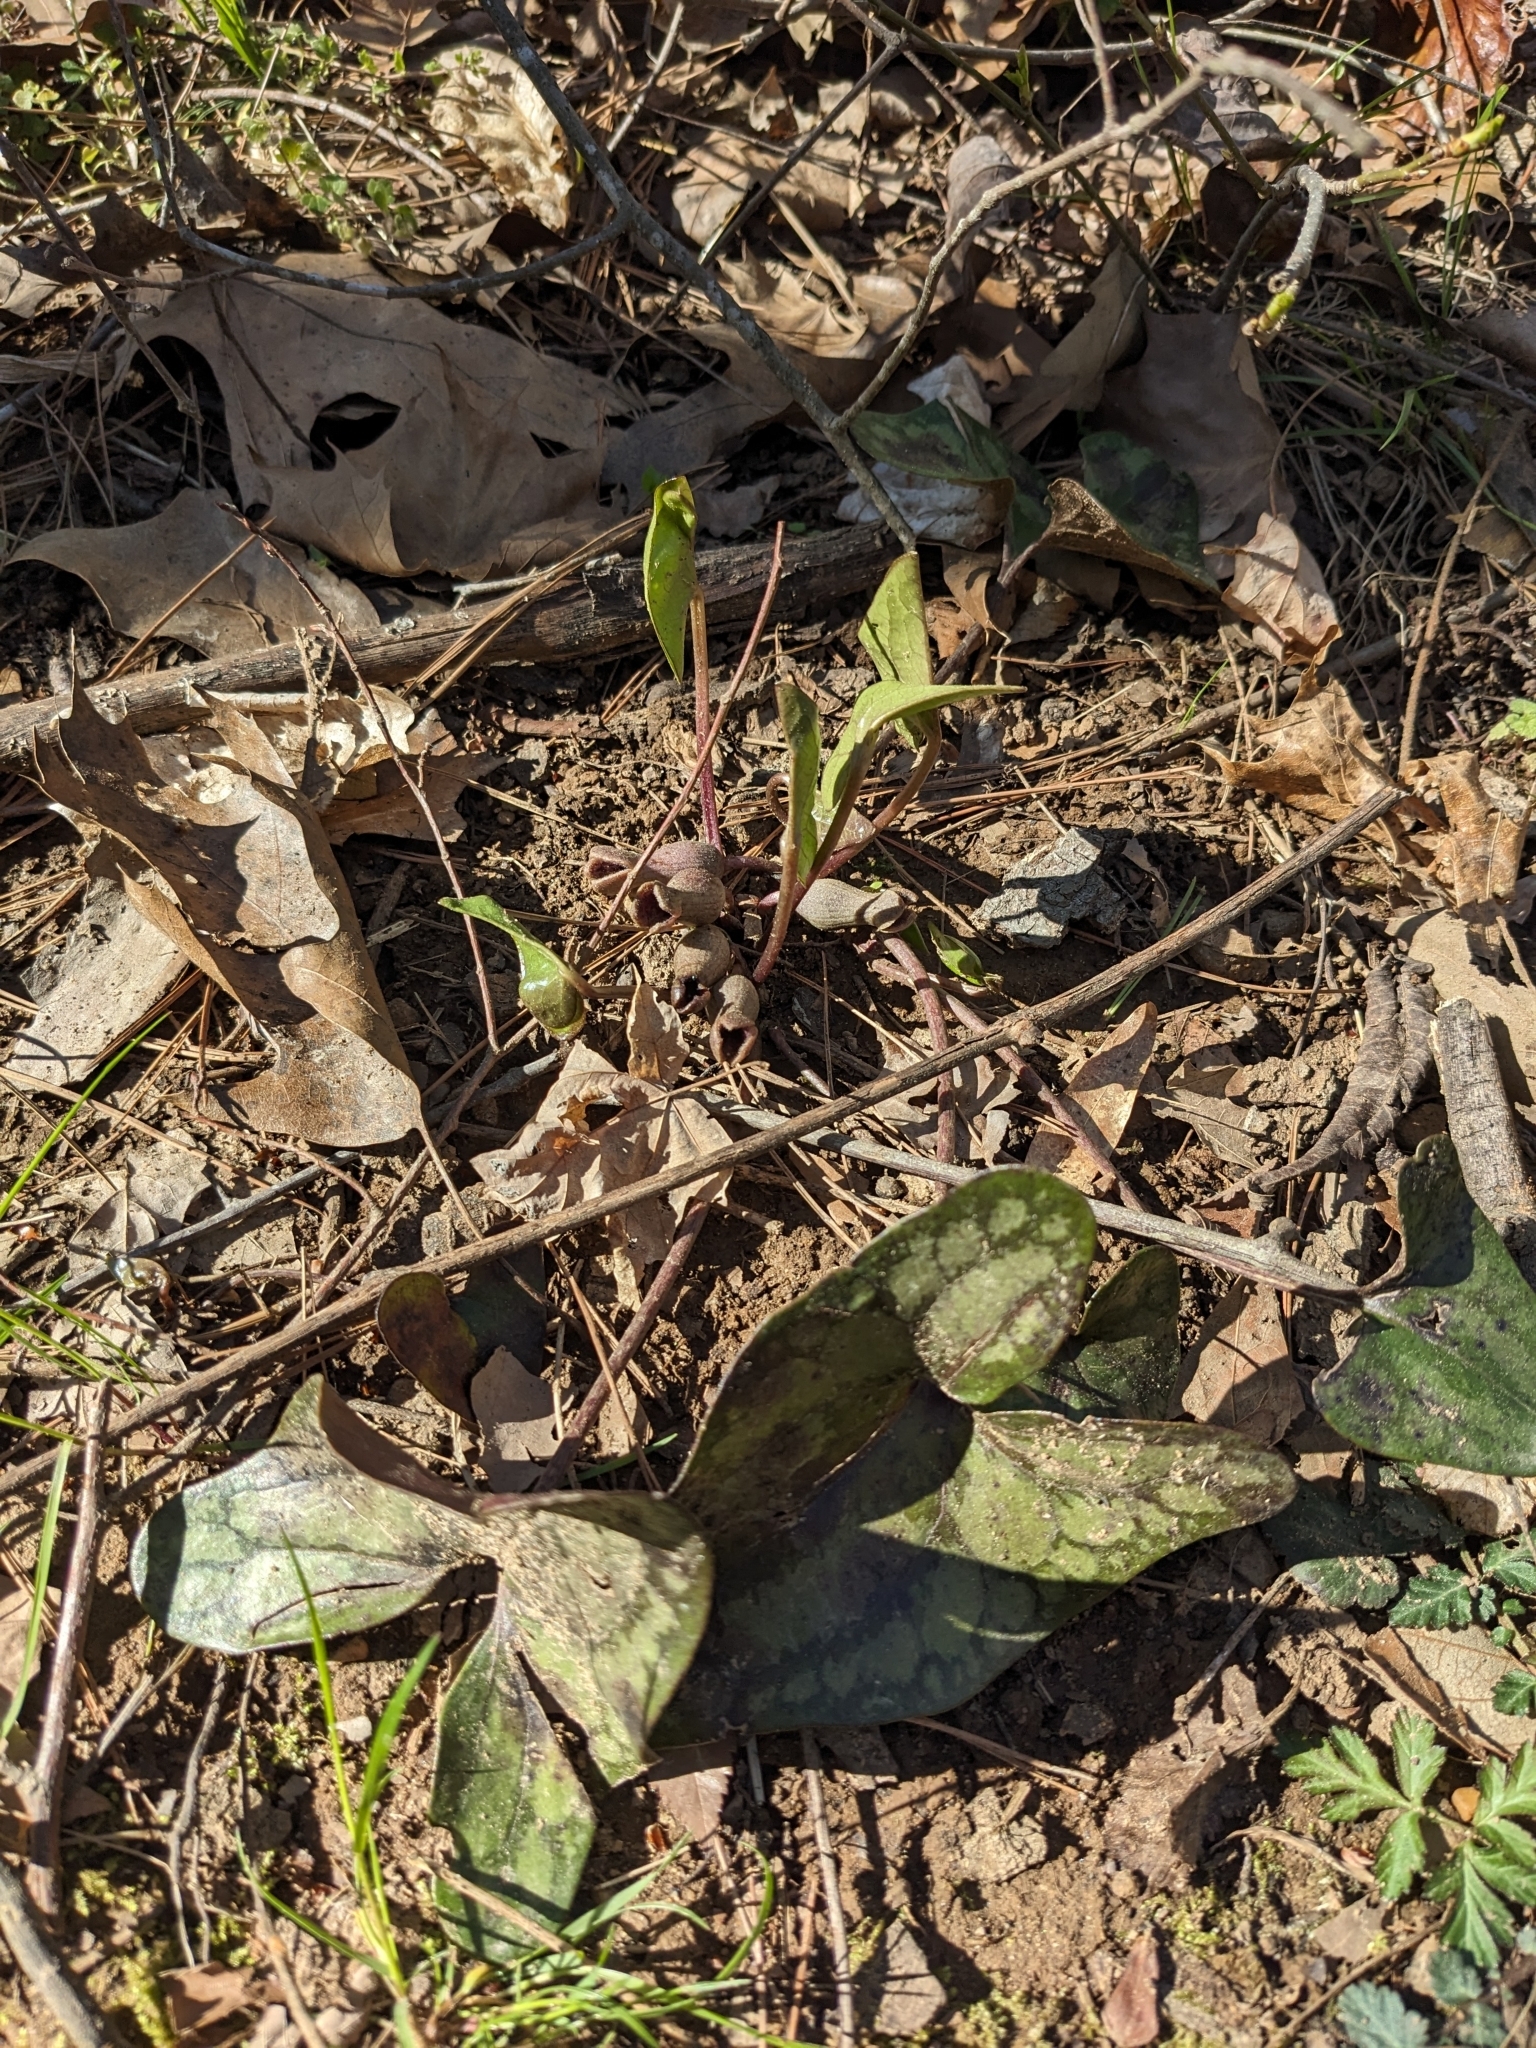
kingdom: Plantae
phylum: Tracheophyta
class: Magnoliopsida
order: Piperales
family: Aristolochiaceae
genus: Hexastylis
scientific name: Hexastylis arifolia
